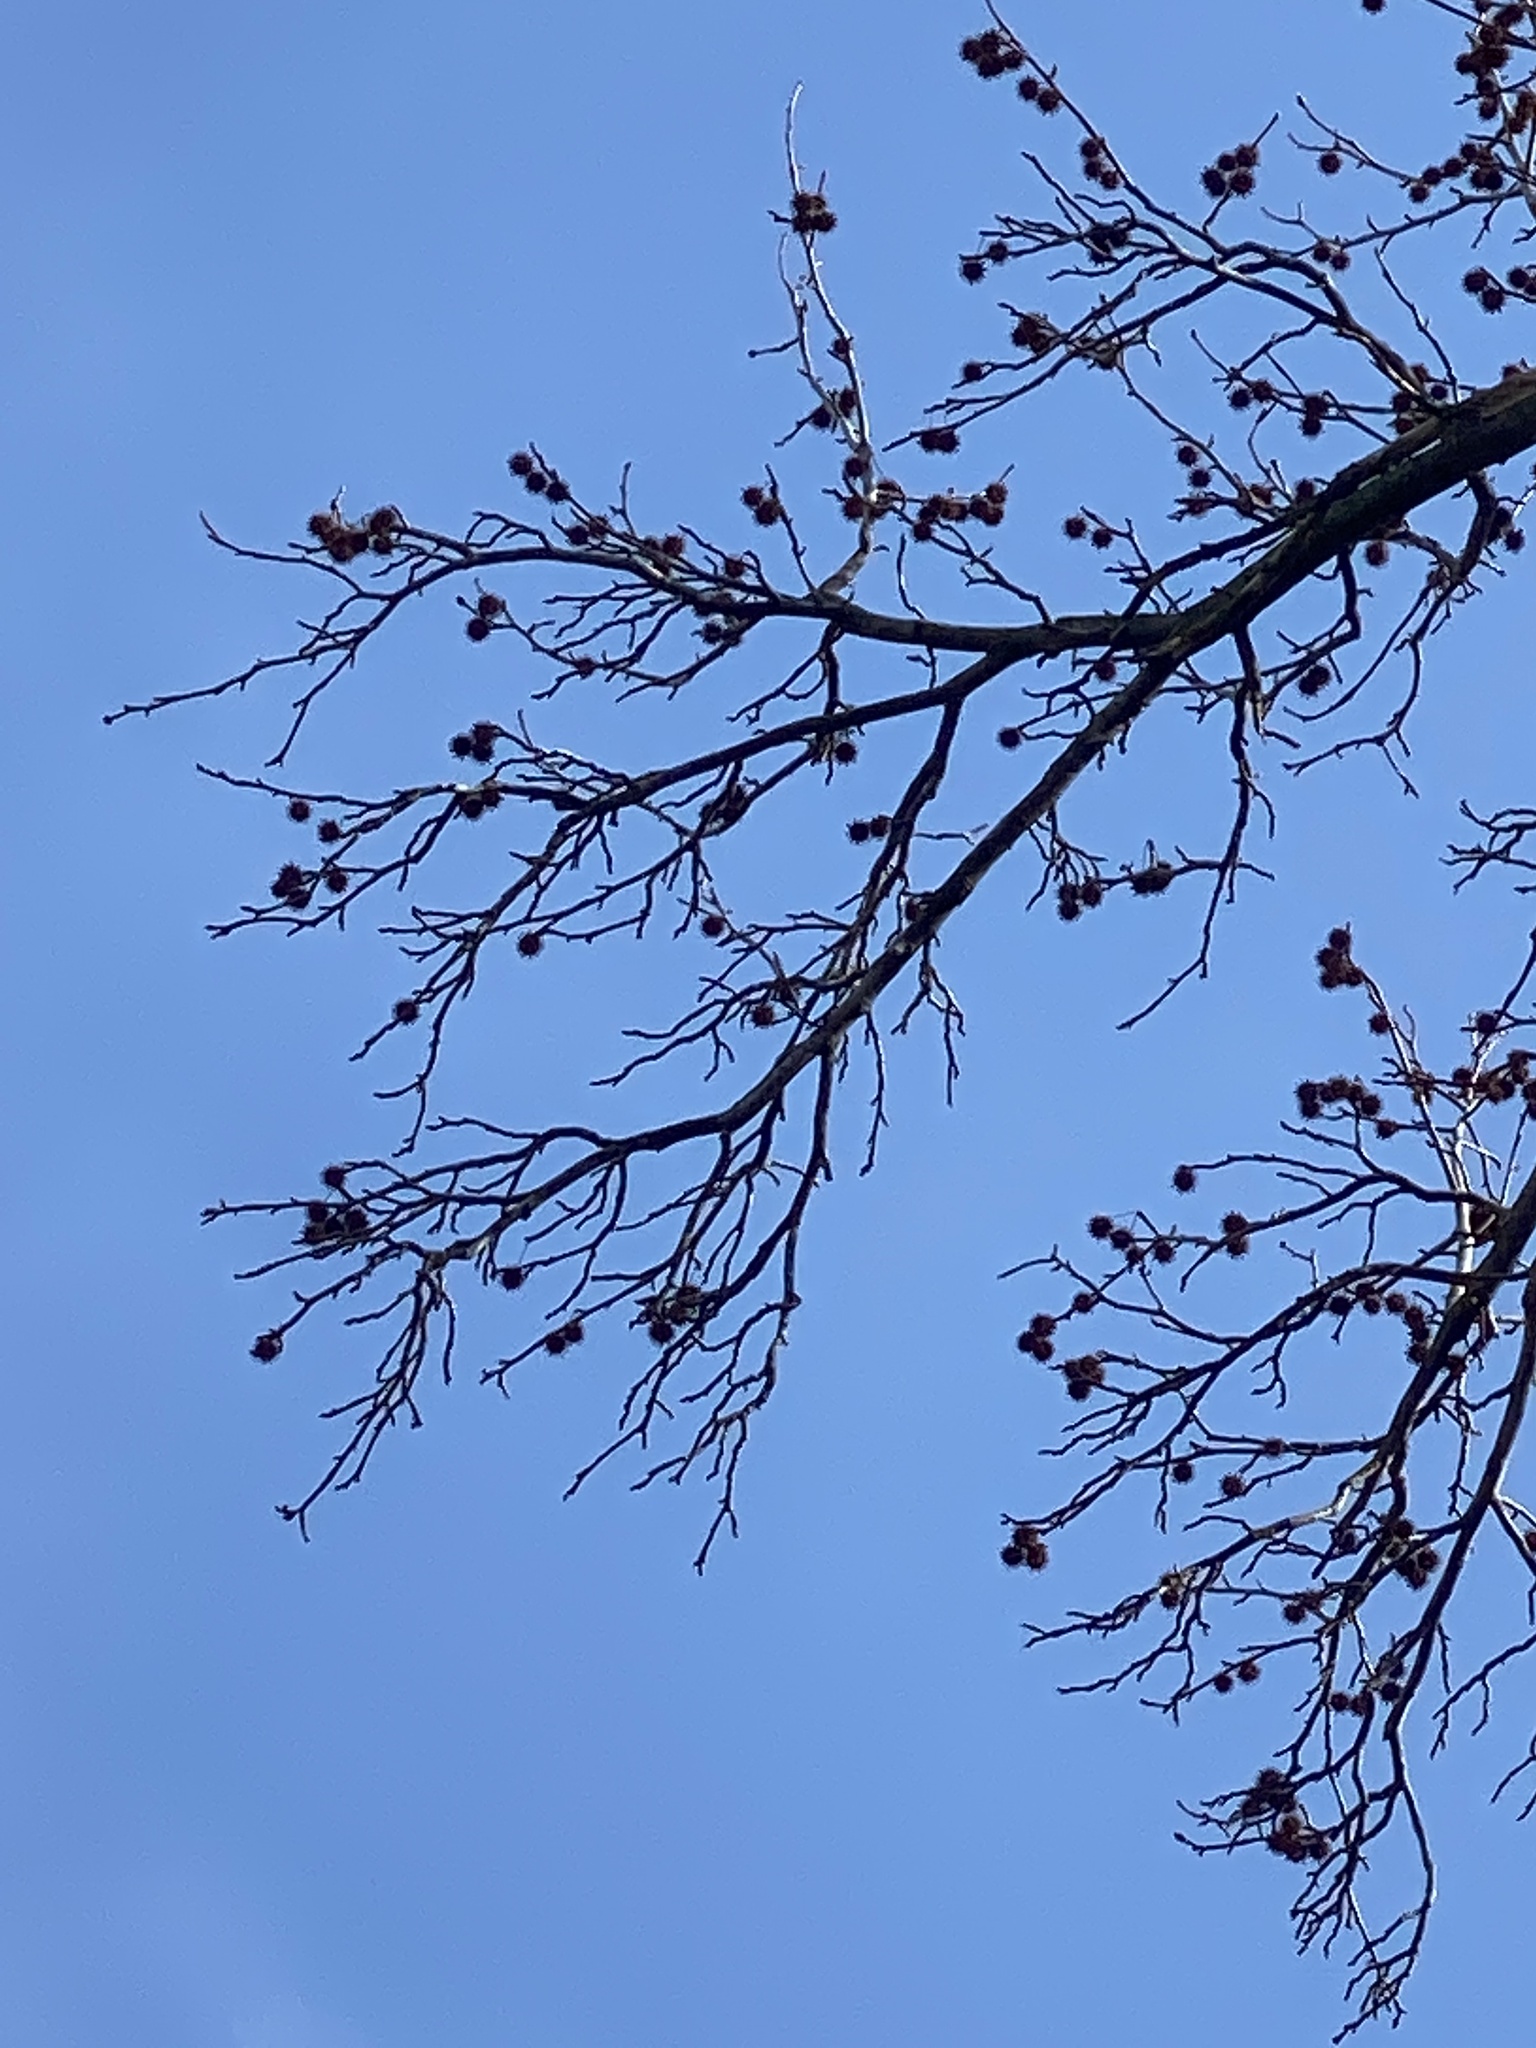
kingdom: Plantae
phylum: Tracheophyta
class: Magnoliopsida
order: Saxifragales
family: Altingiaceae
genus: Liquidambar
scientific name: Liquidambar styraciflua
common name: Sweet gum
